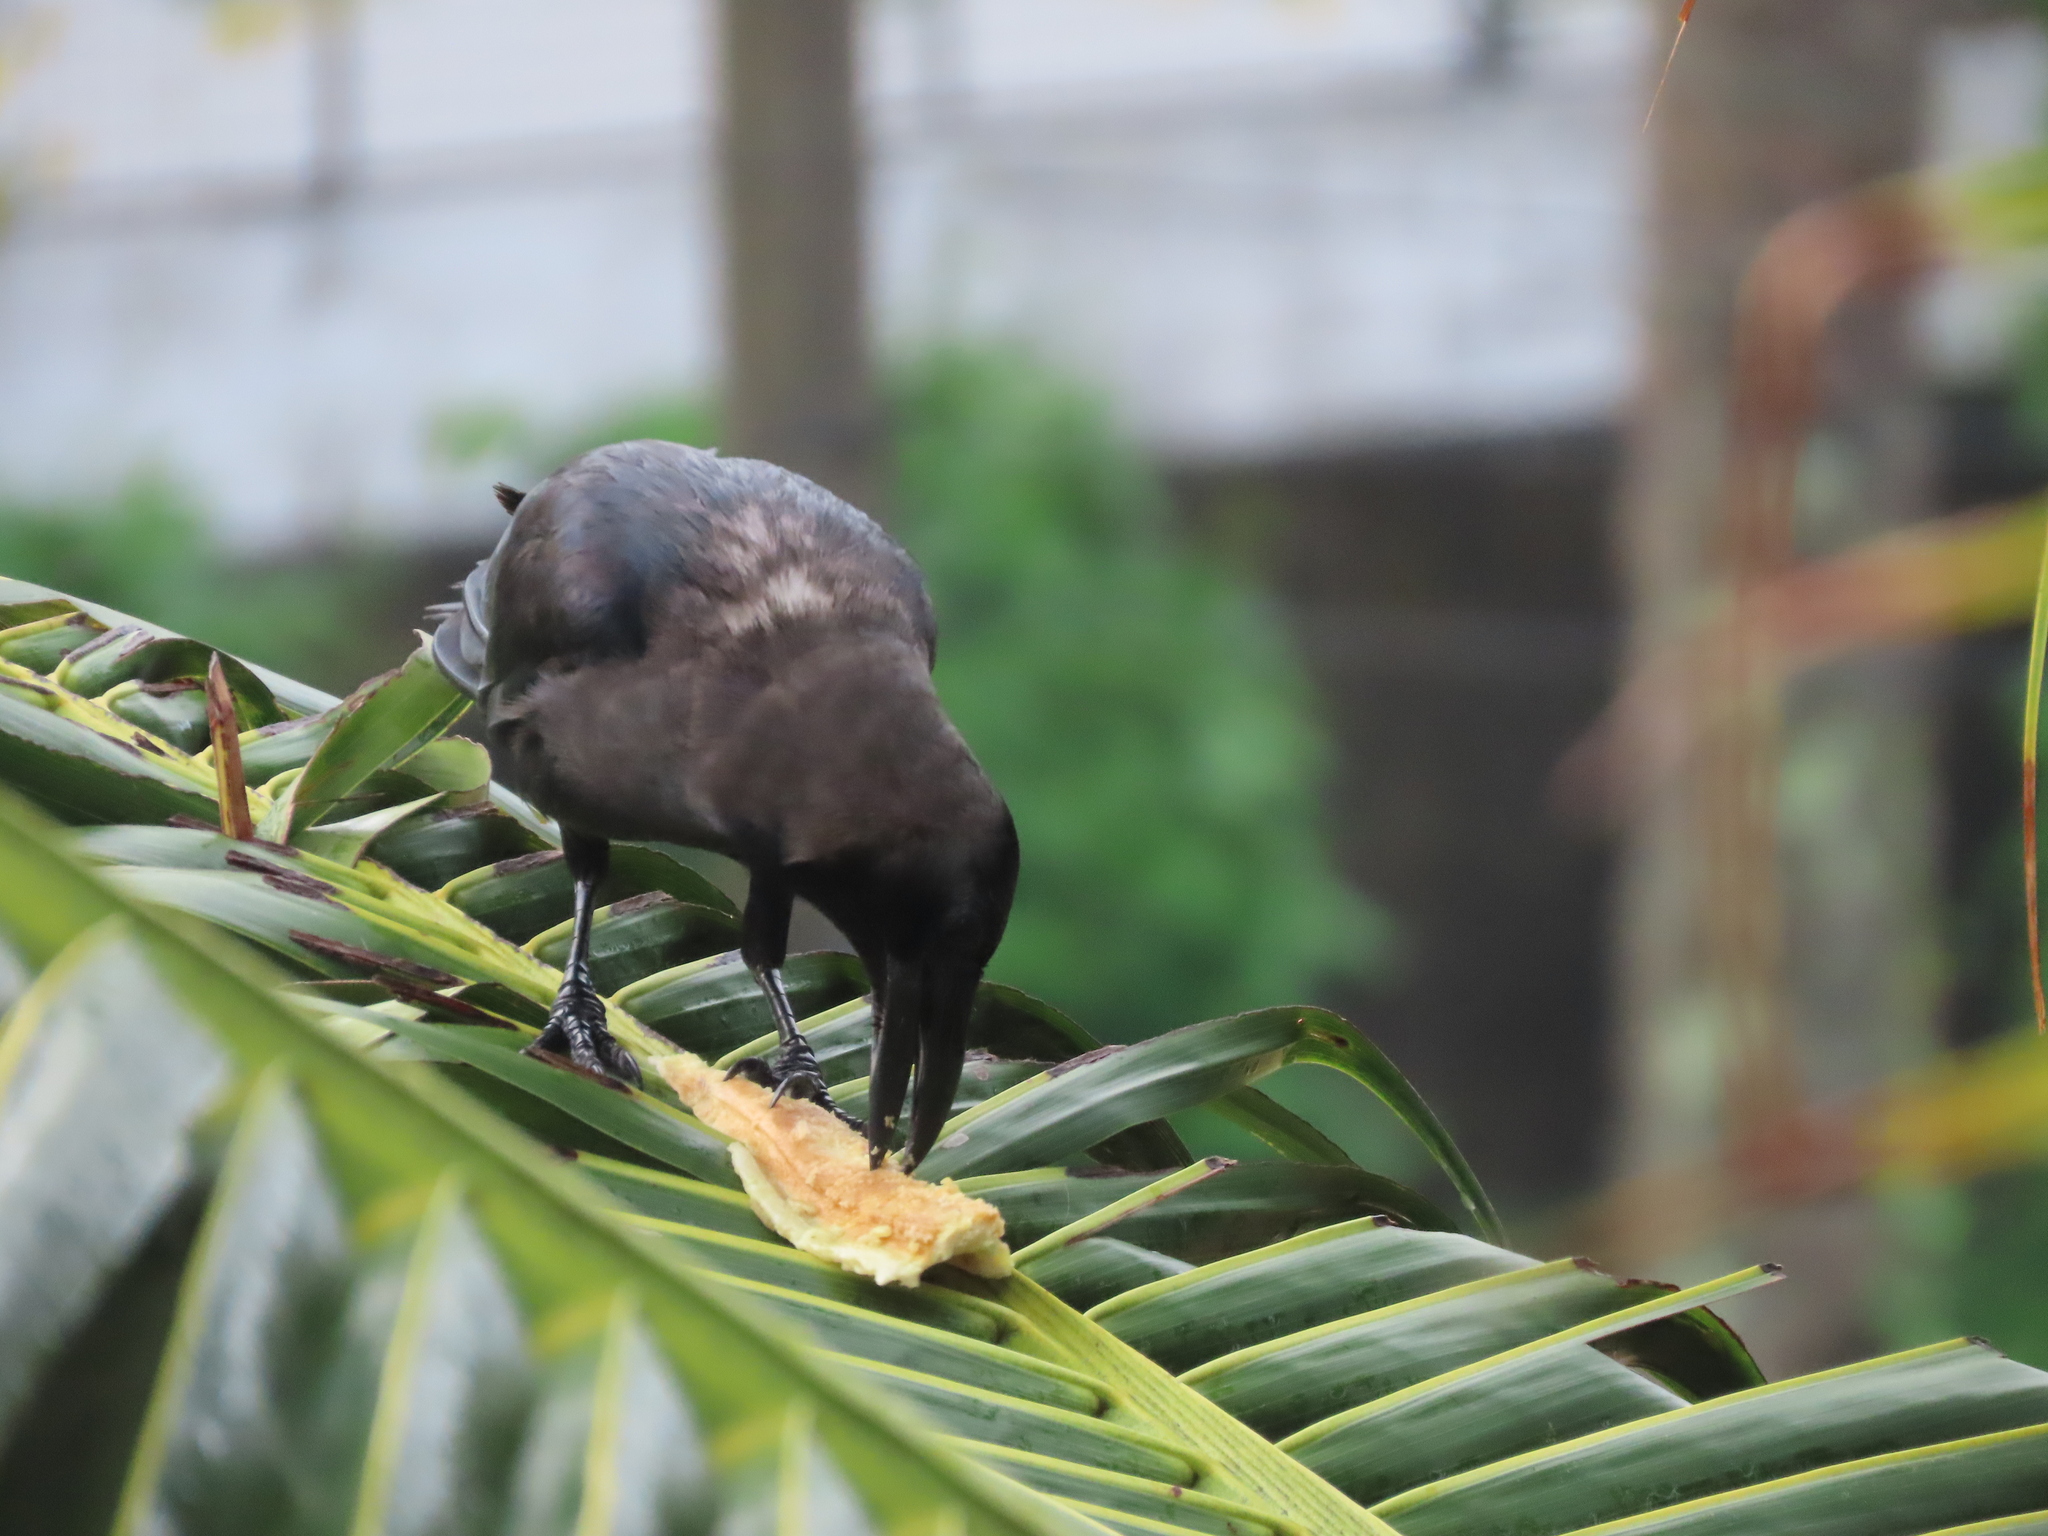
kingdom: Animalia
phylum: Chordata
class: Aves
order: Passeriformes
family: Corvidae
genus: Corvus
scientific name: Corvus splendens
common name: House crow
